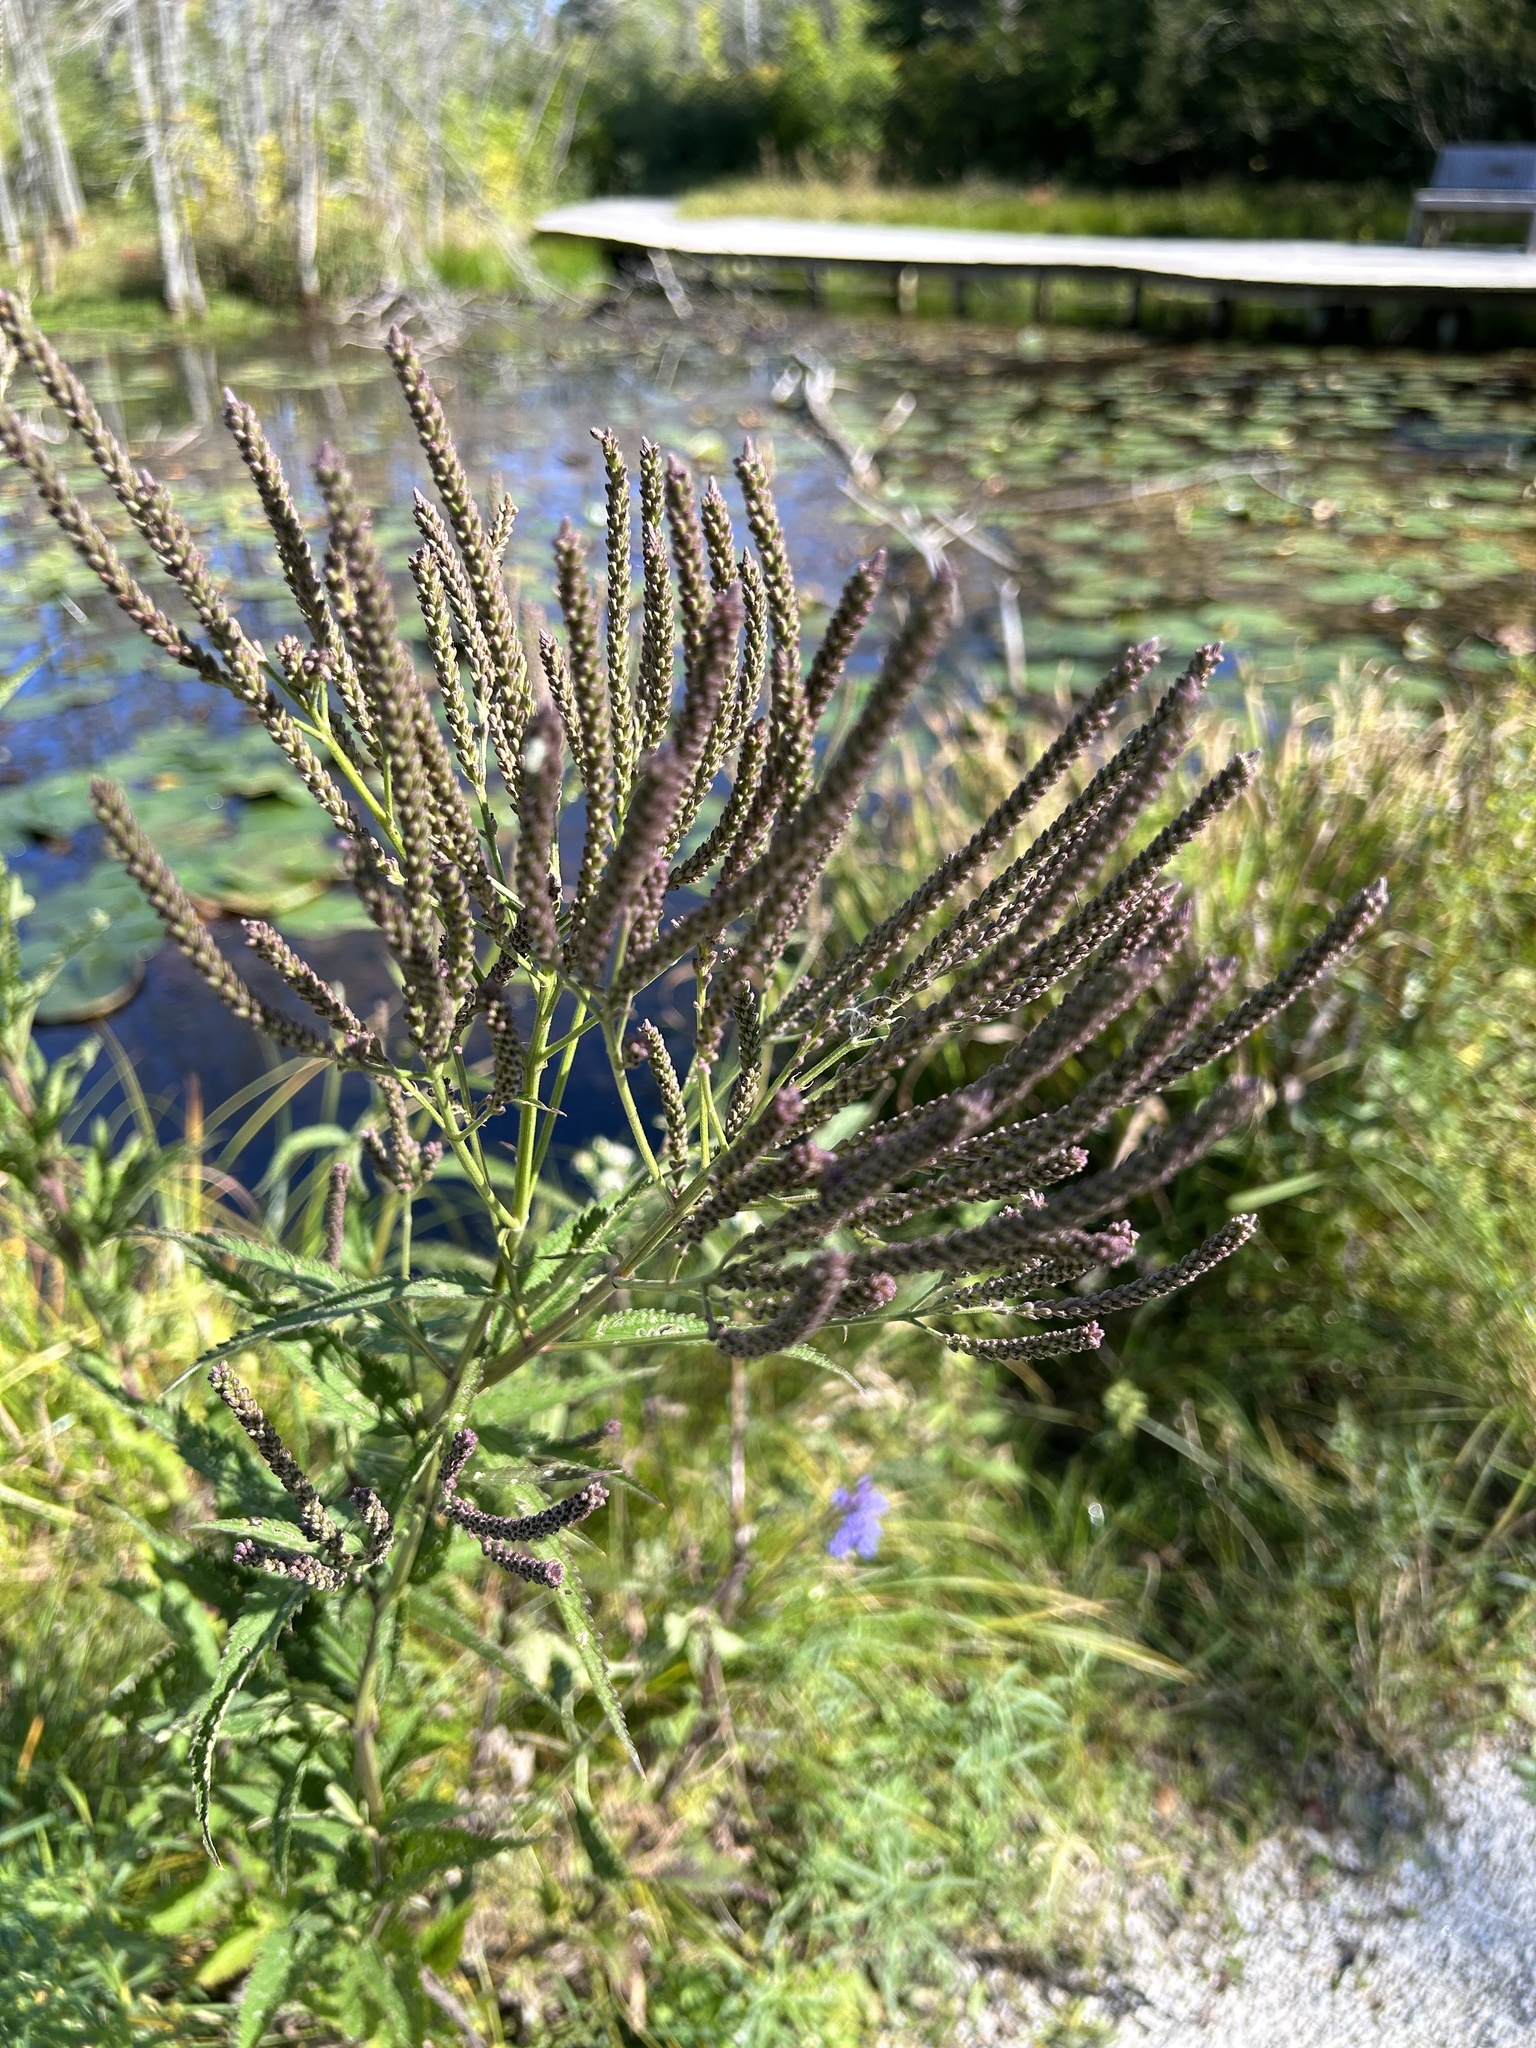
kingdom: Plantae
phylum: Tracheophyta
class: Magnoliopsida
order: Lamiales
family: Verbenaceae
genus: Verbena
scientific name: Verbena hastata
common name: American blue vervain
